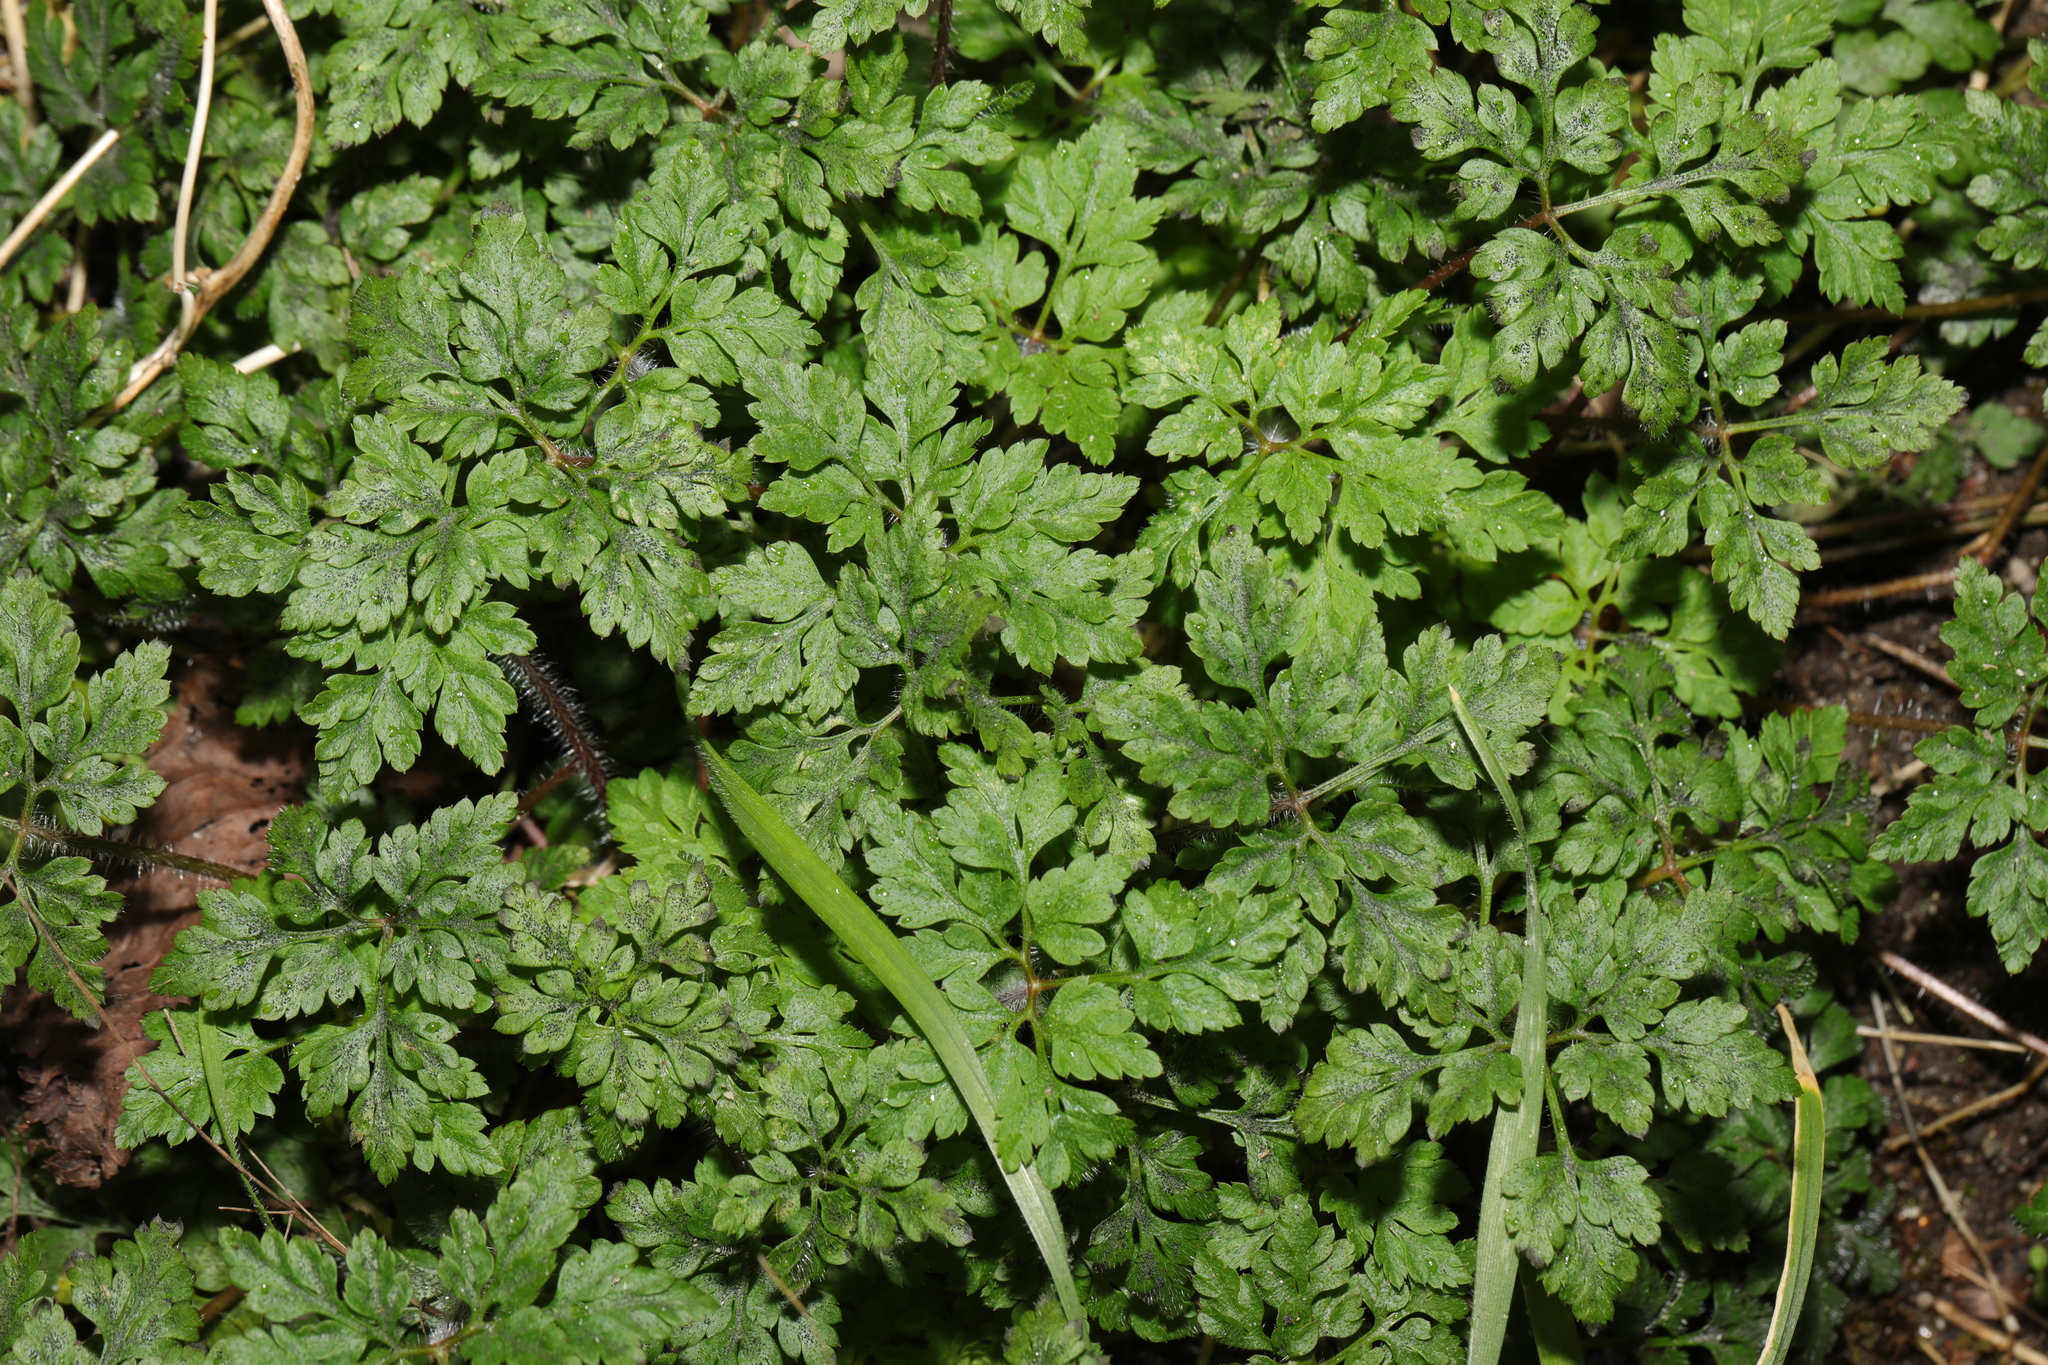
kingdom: Plantae
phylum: Tracheophyta
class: Magnoliopsida
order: Geraniales
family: Geraniaceae
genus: Geranium
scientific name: Geranium robertianum
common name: Herb-robert
